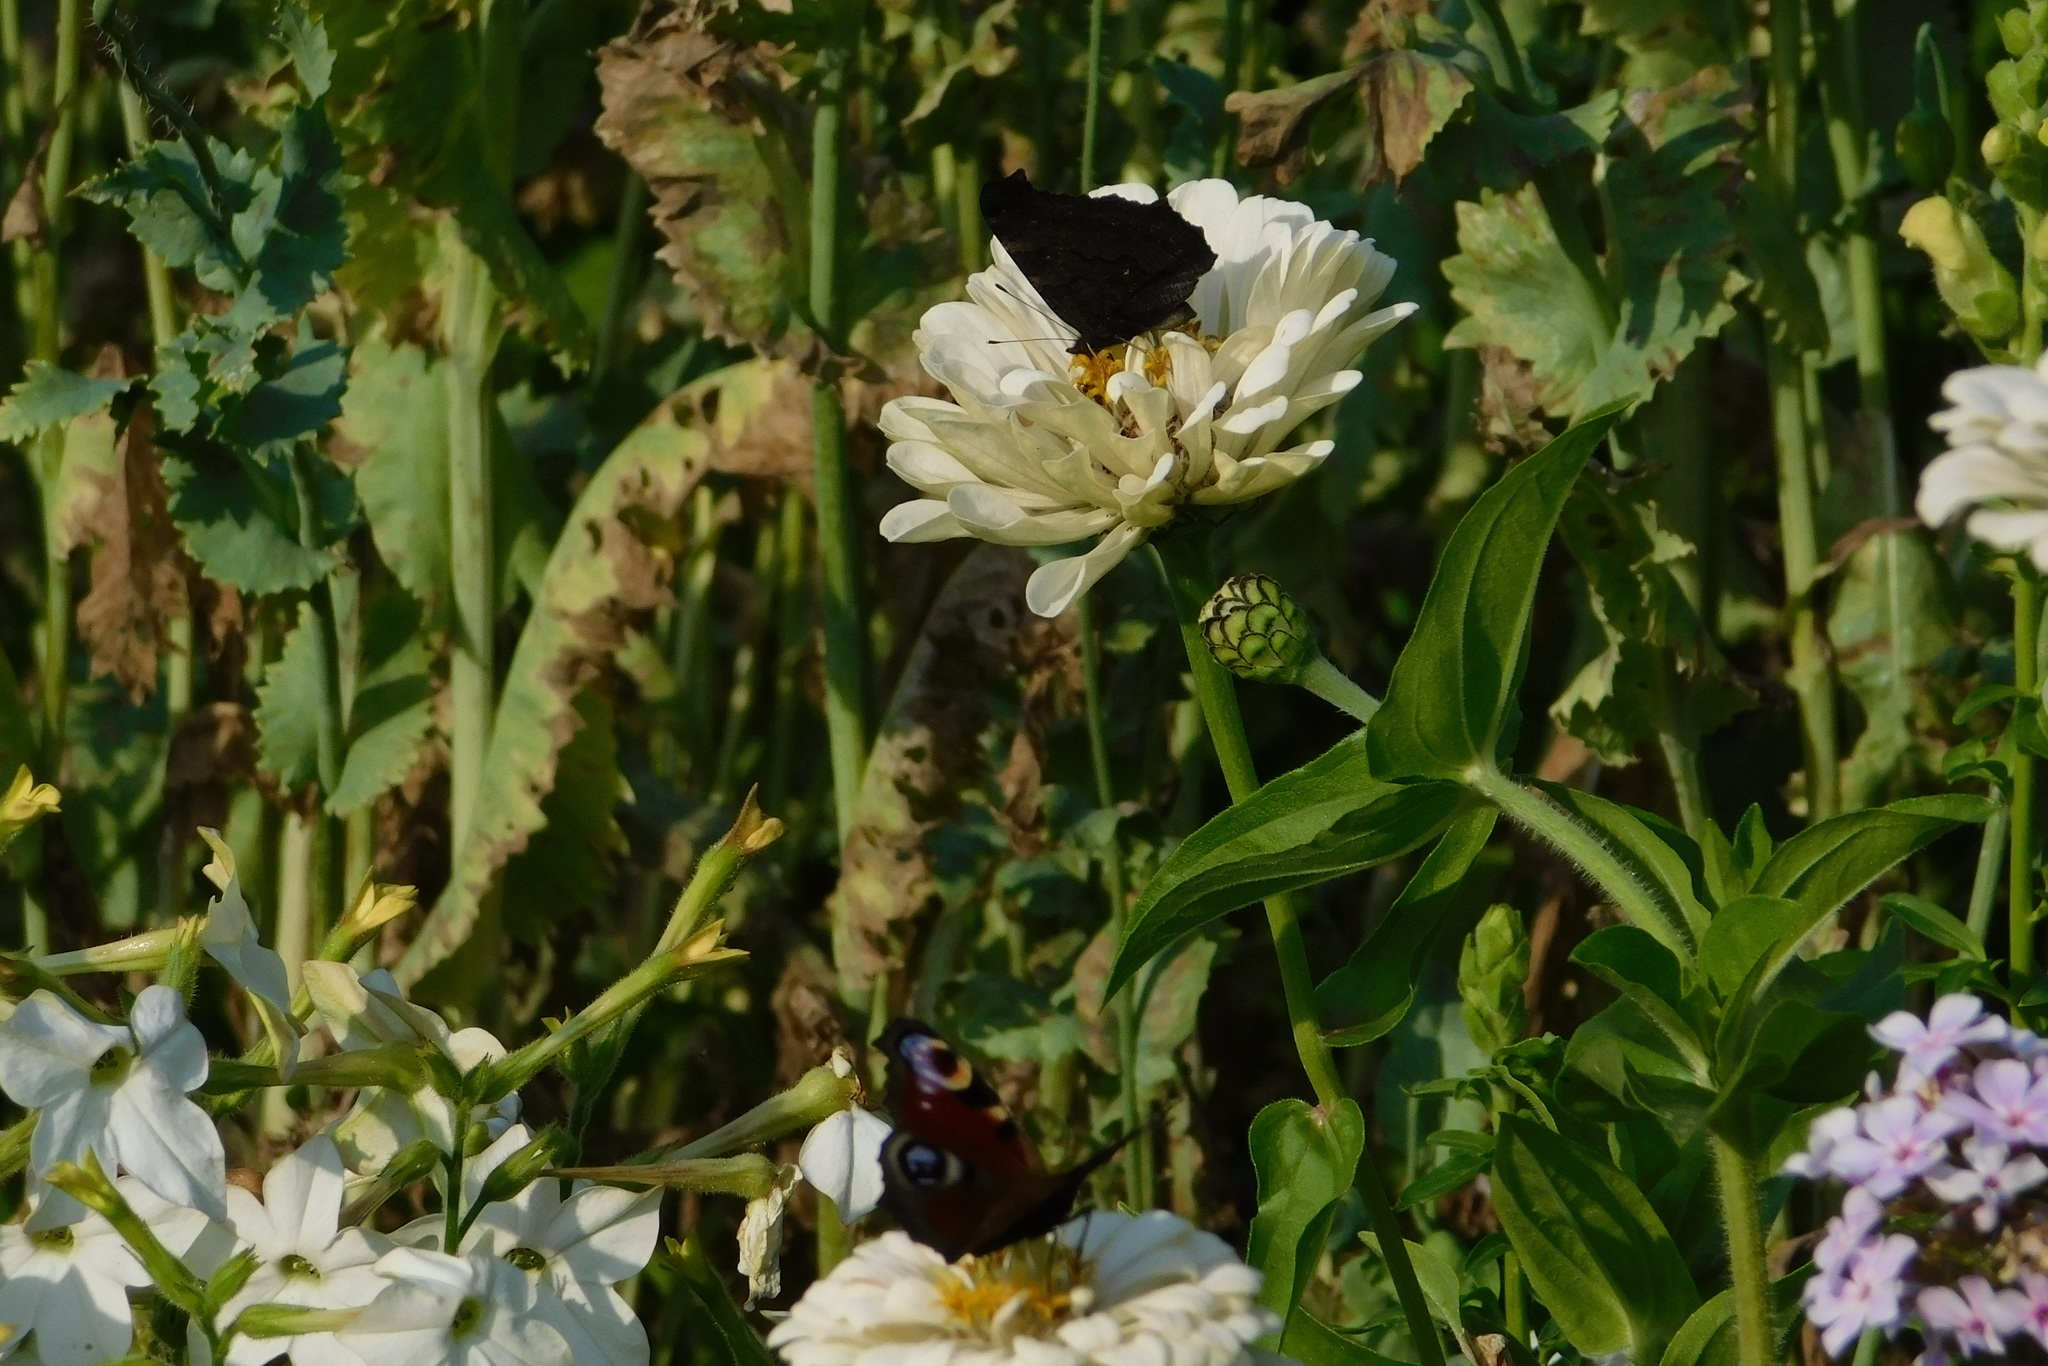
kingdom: Animalia
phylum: Arthropoda
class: Insecta
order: Lepidoptera
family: Nymphalidae
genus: Aglais
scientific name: Aglais io
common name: Peacock
